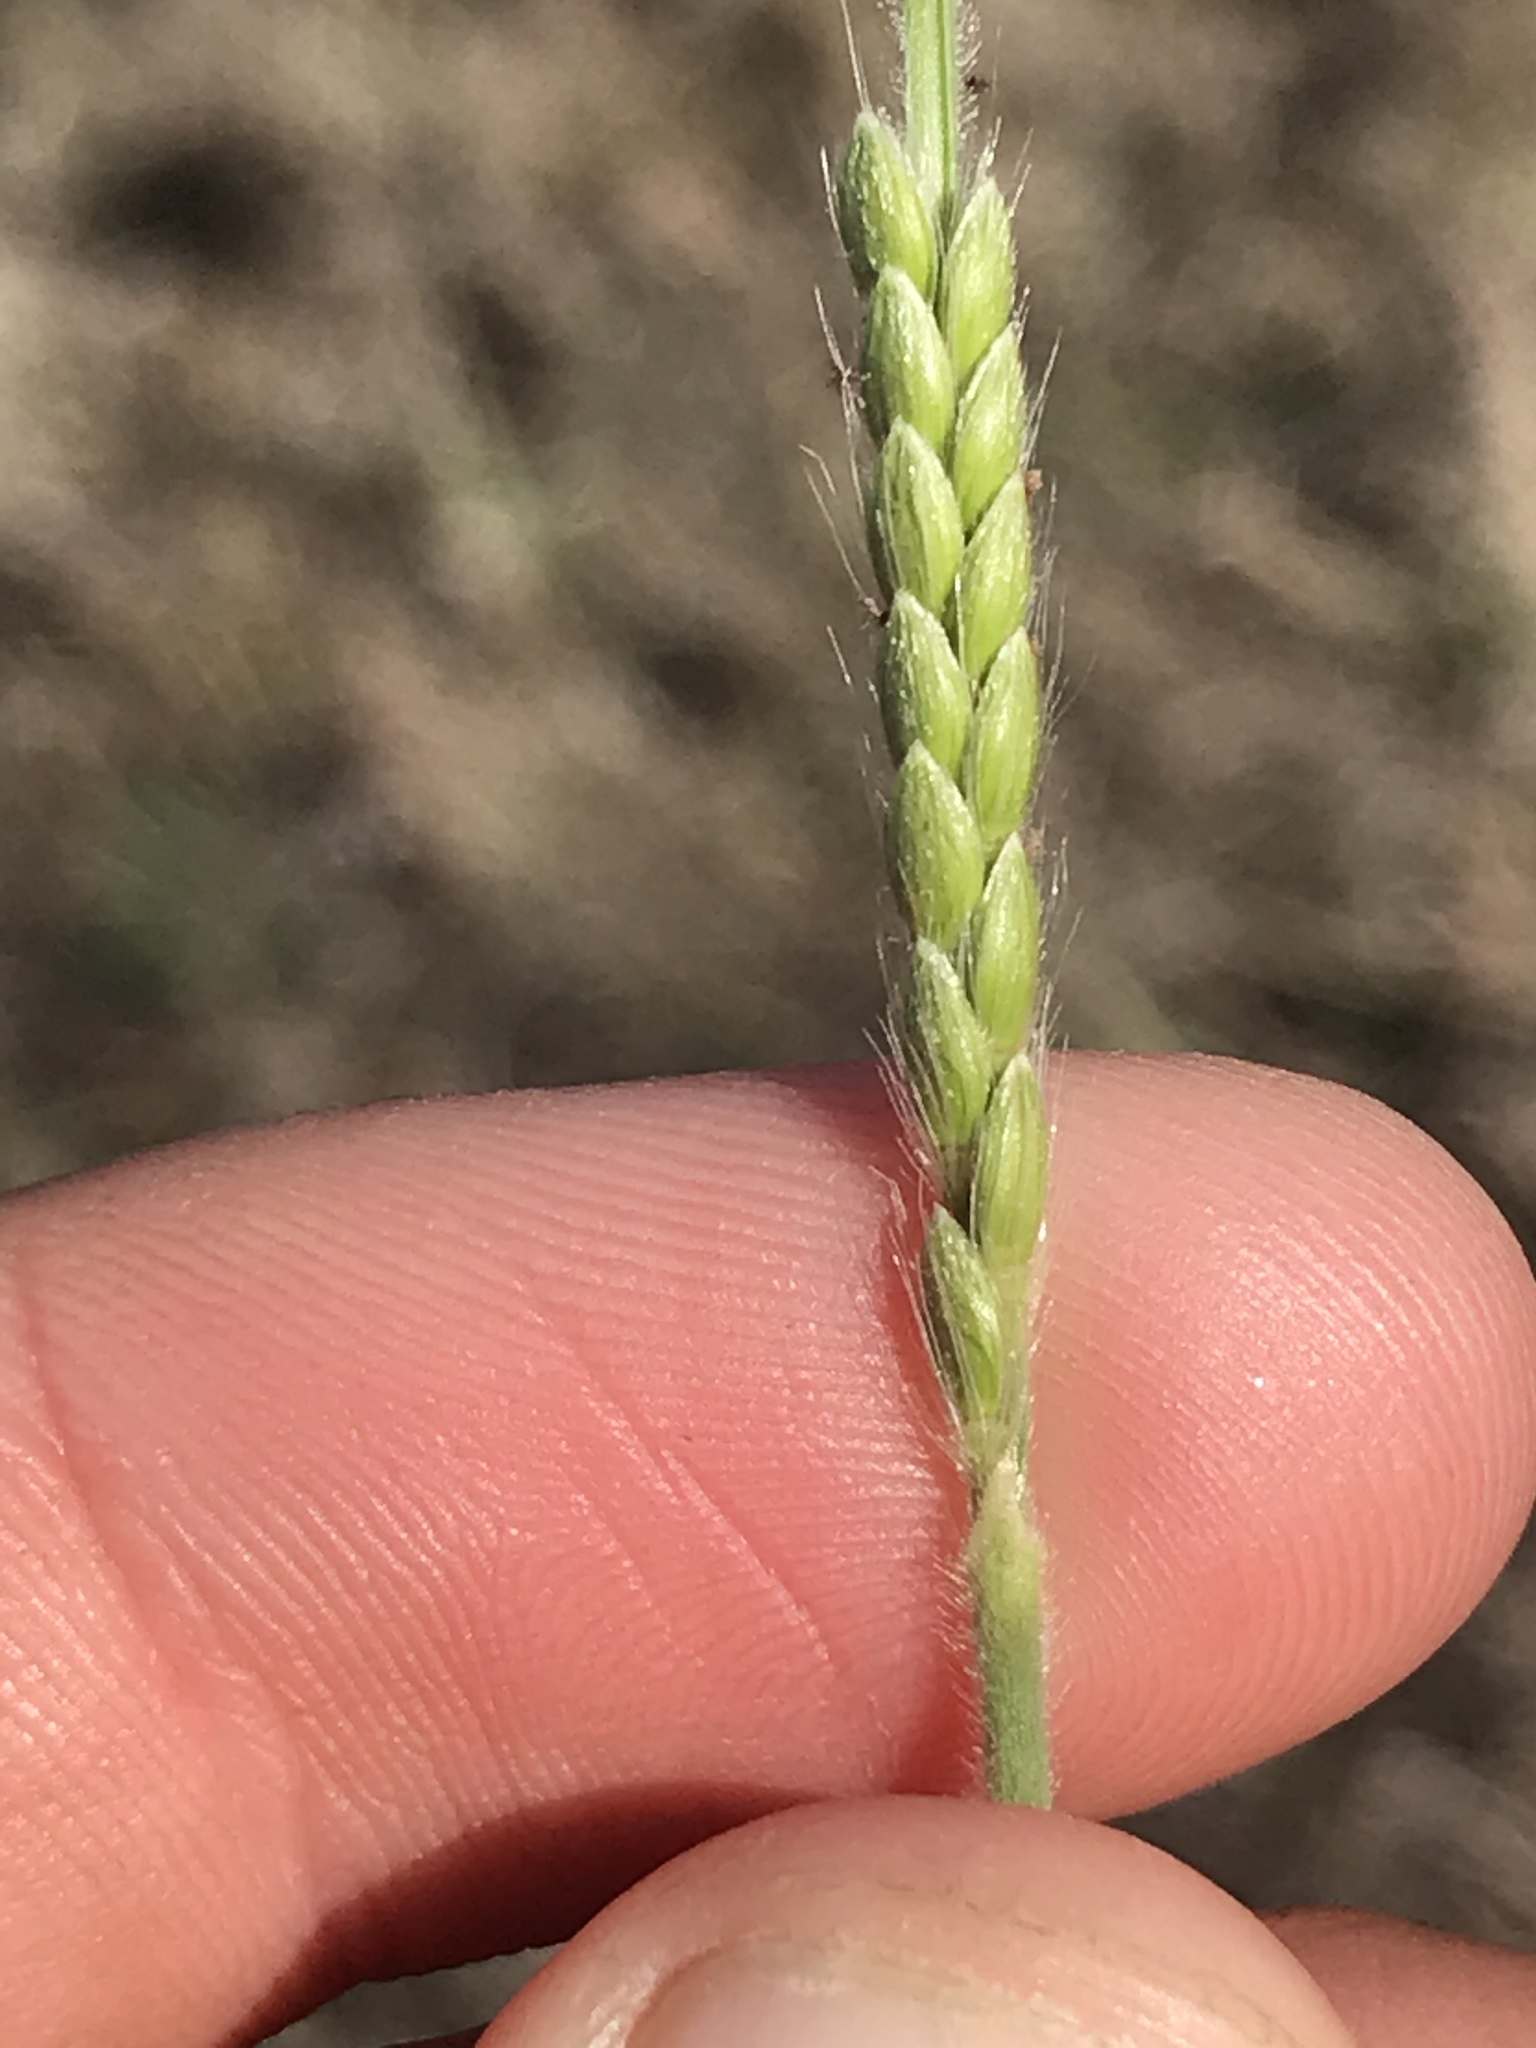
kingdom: Plantae
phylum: Tracheophyta
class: Liliopsida
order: Poales
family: Poaceae
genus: Eriochloa
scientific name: Eriochloa sericea
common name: Texas cup grass
